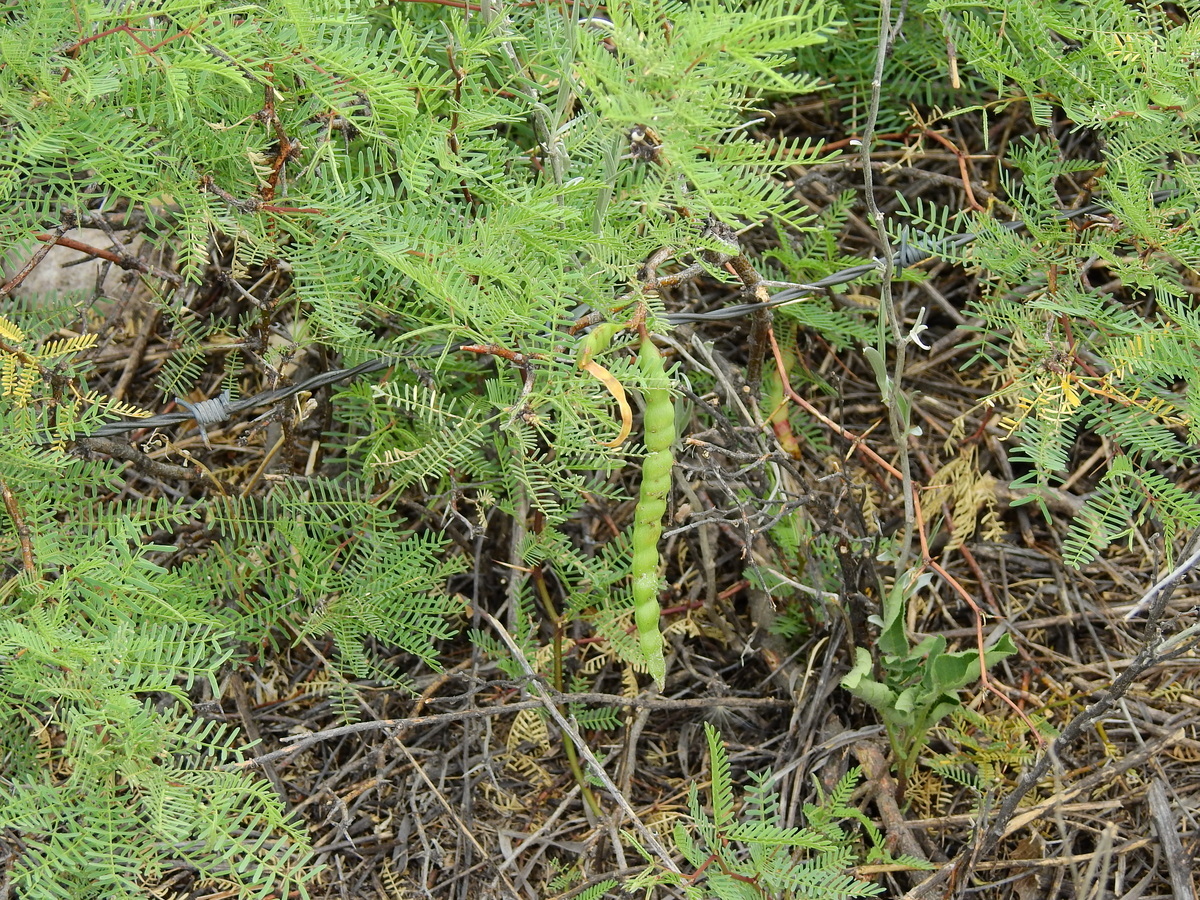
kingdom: Plantae
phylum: Tracheophyta
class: Magnoliopsida
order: Fabales
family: Fabaceae
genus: Prosopis
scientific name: Prosopis flexuosa
